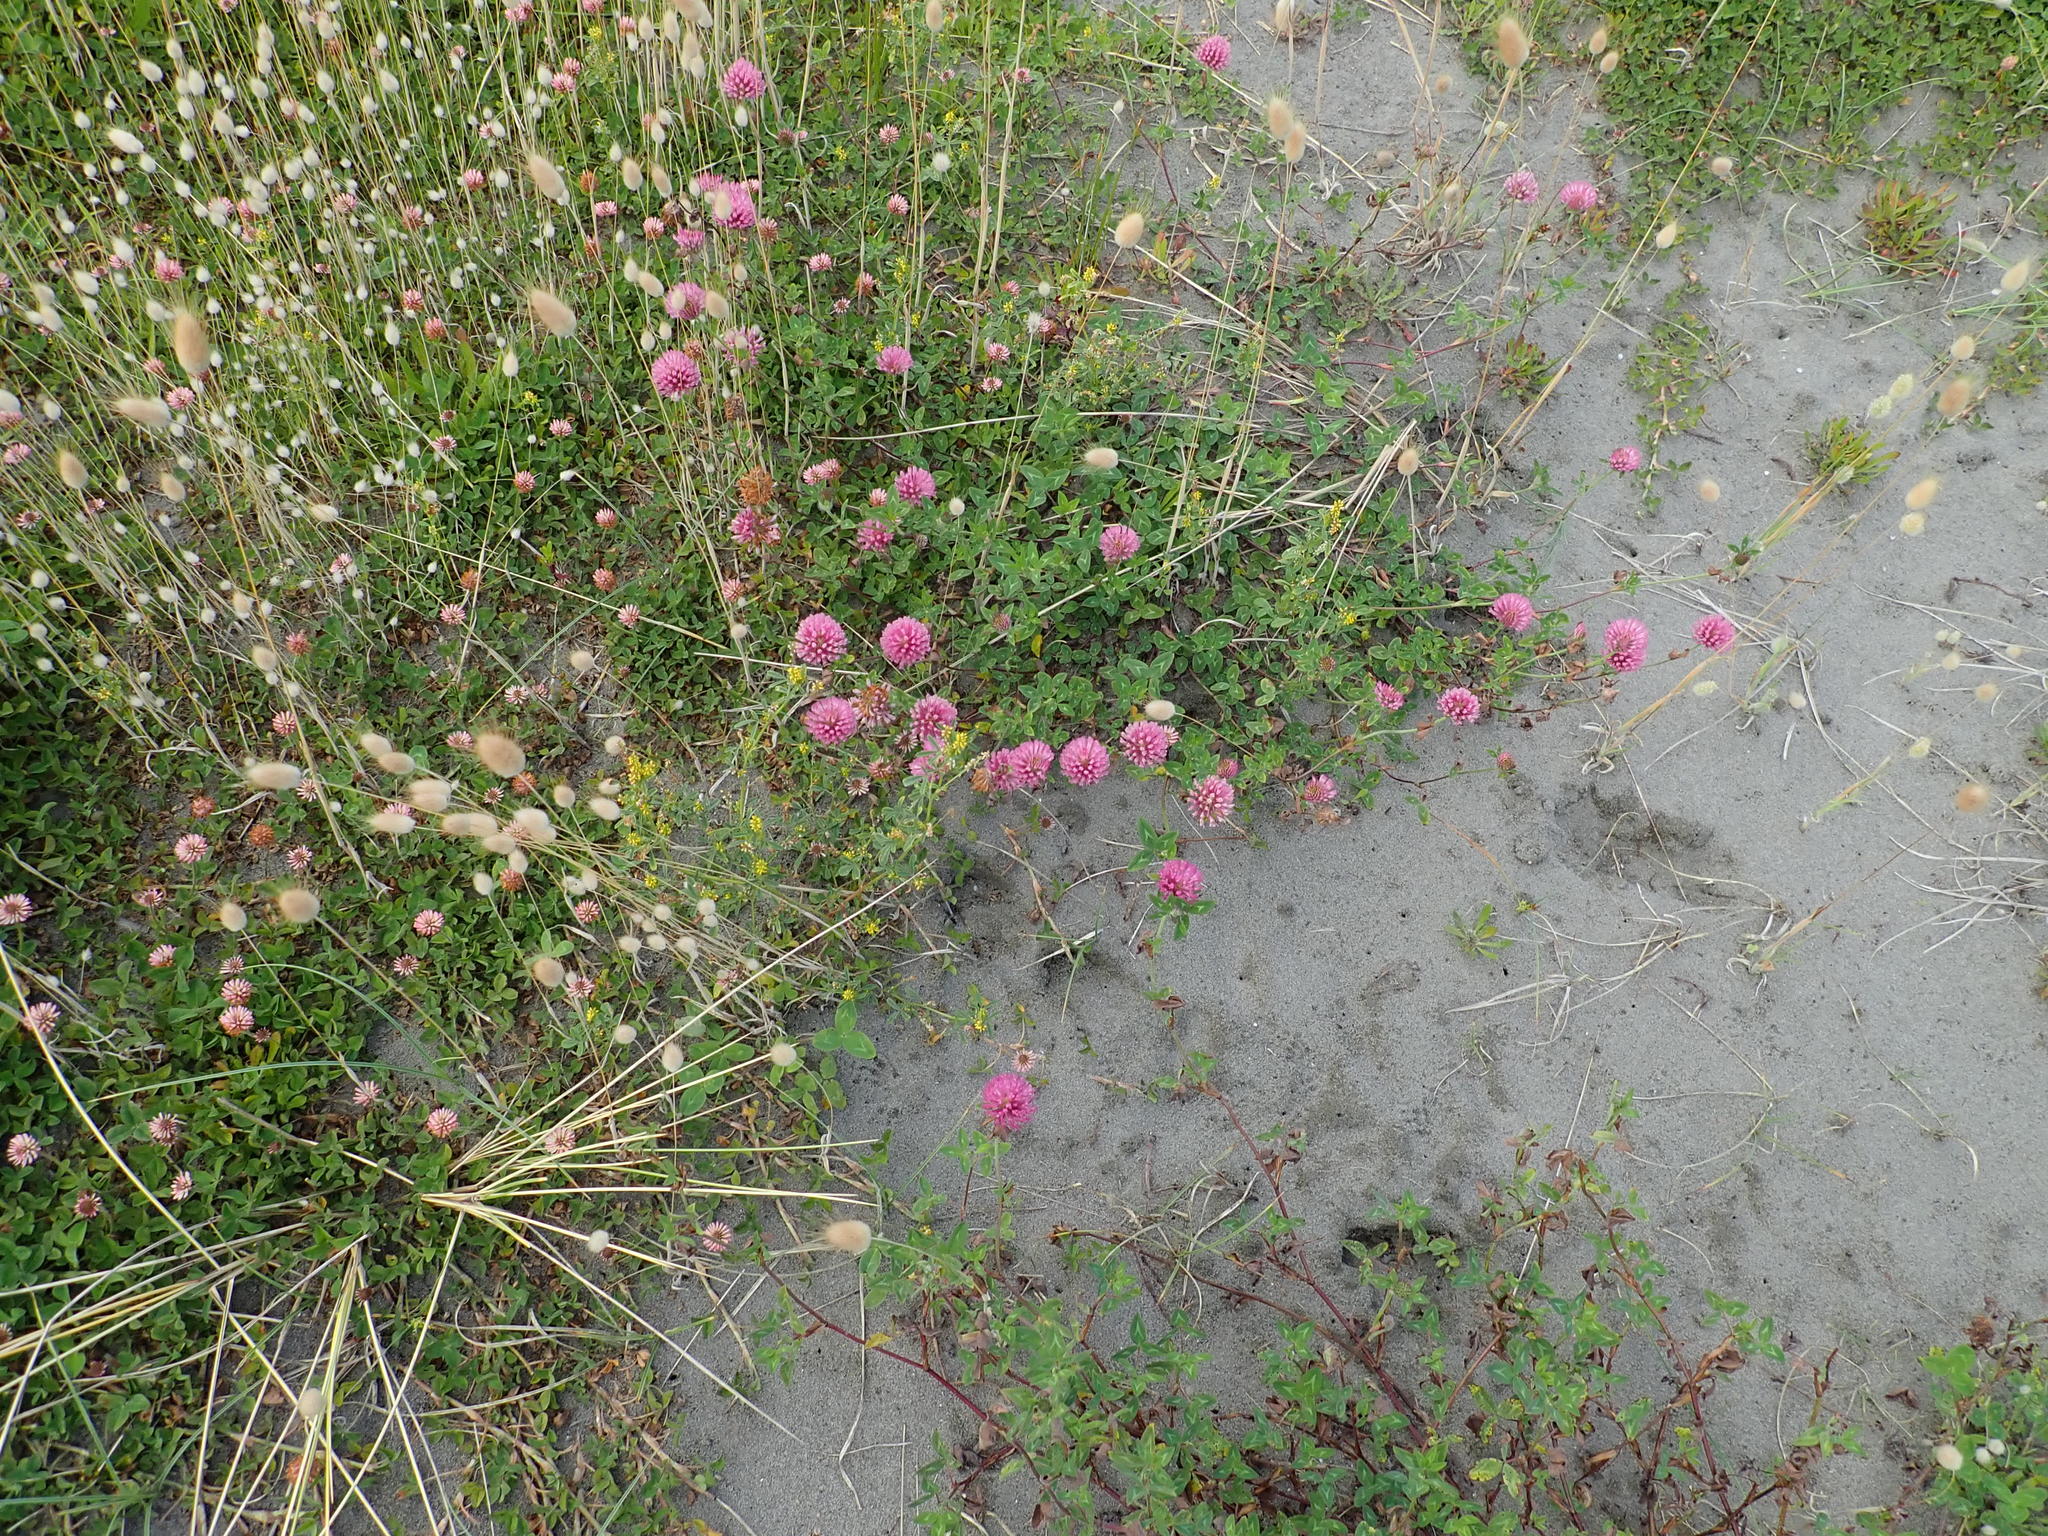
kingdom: Plantae
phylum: Tracheophyta
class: Magnoliopsida
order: Fabales
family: Fabaceae
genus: Trifolium
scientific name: Trifolium pratense
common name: Red clover
